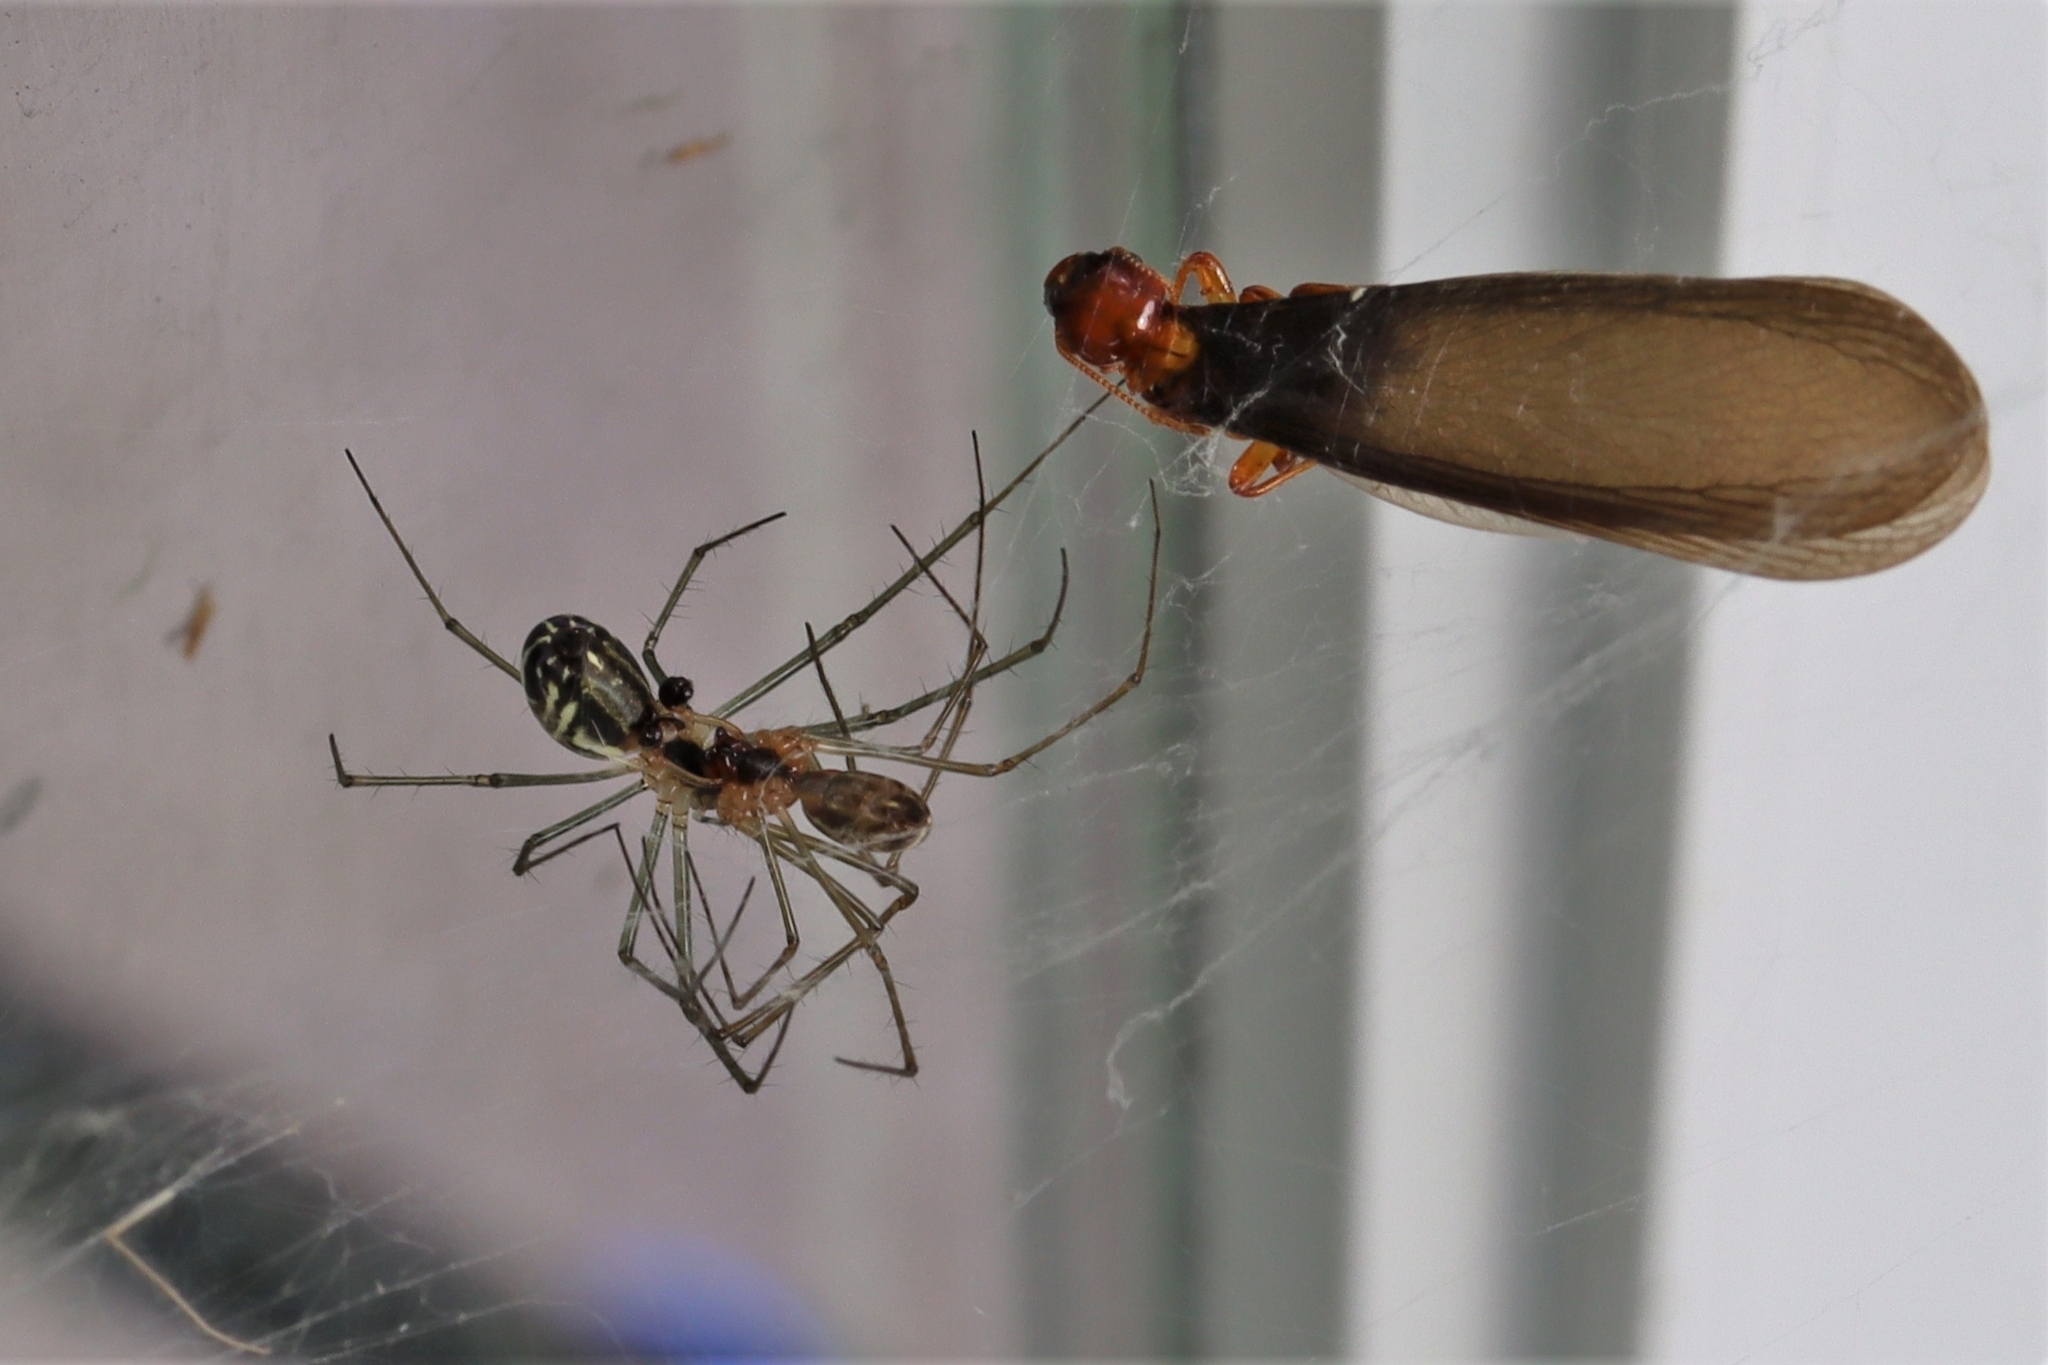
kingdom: Animalia
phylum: Arthropoda
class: Arachnida
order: Araneae
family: Linyphiidae
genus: Neriene
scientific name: Neriene litigiosa
